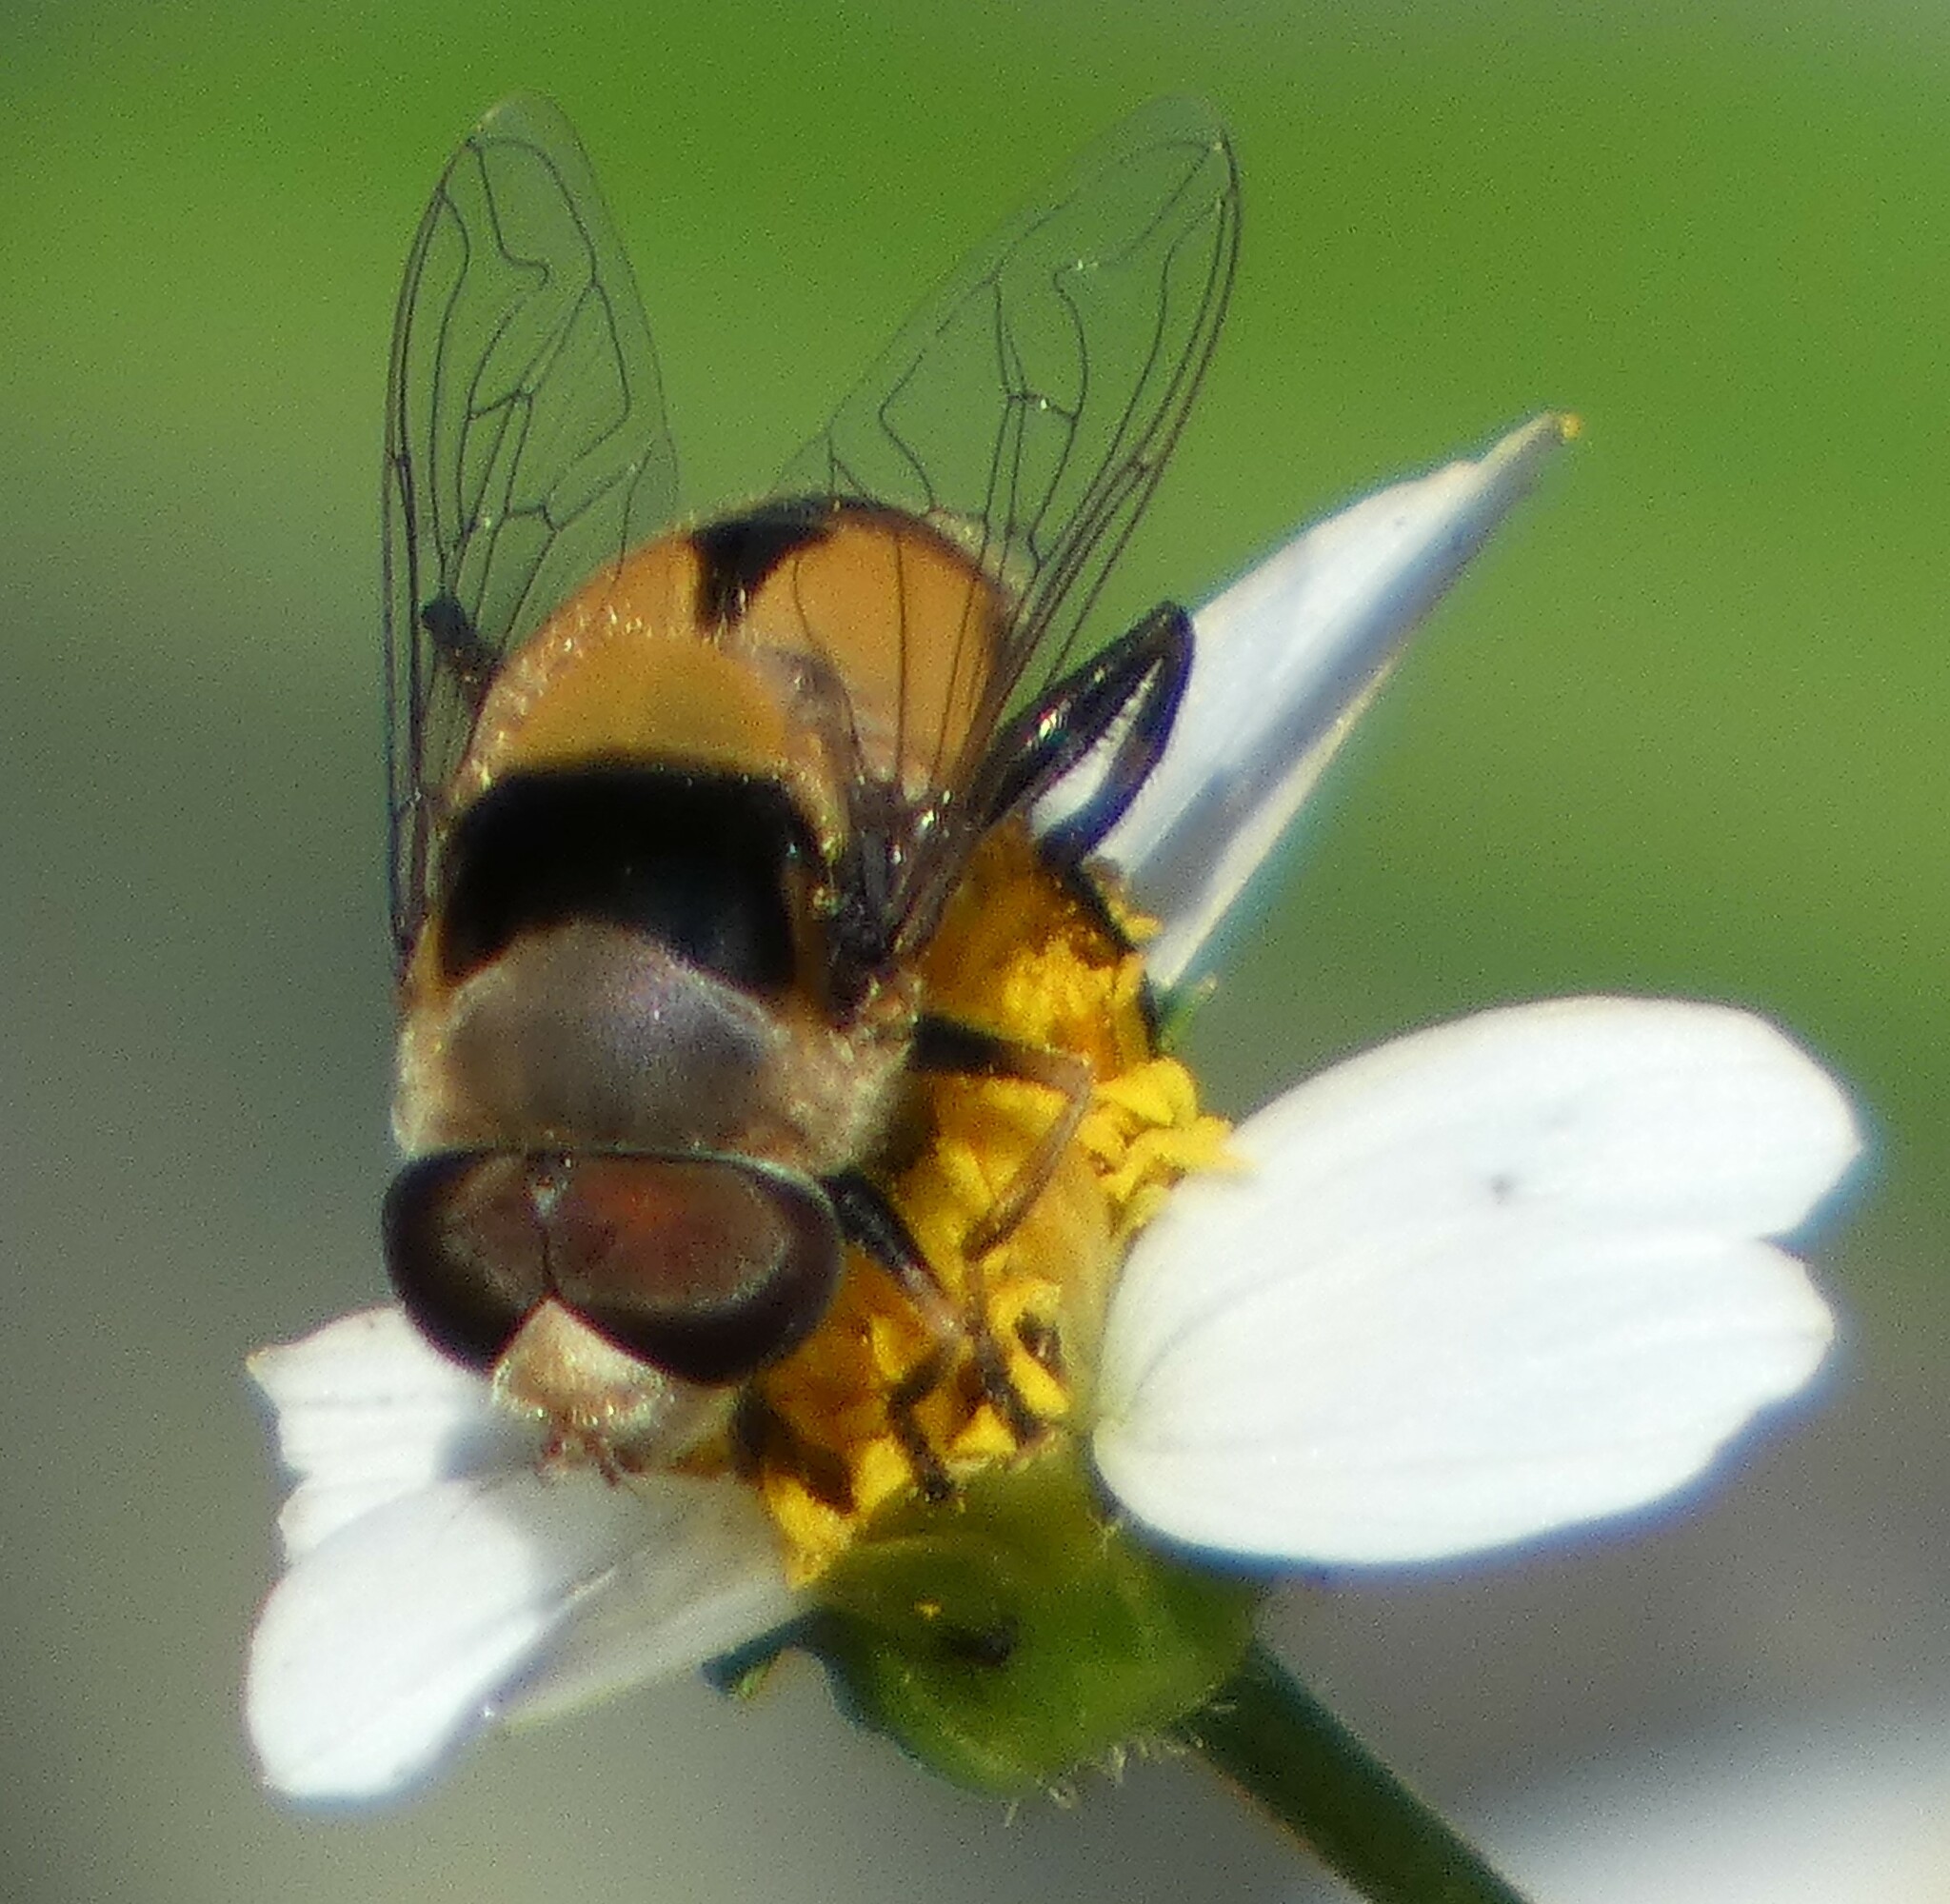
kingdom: Animalia
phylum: Arthropoda
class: Insecta
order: Diptera
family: Syrphidae
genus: Palpada
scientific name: Palpada pusilla
